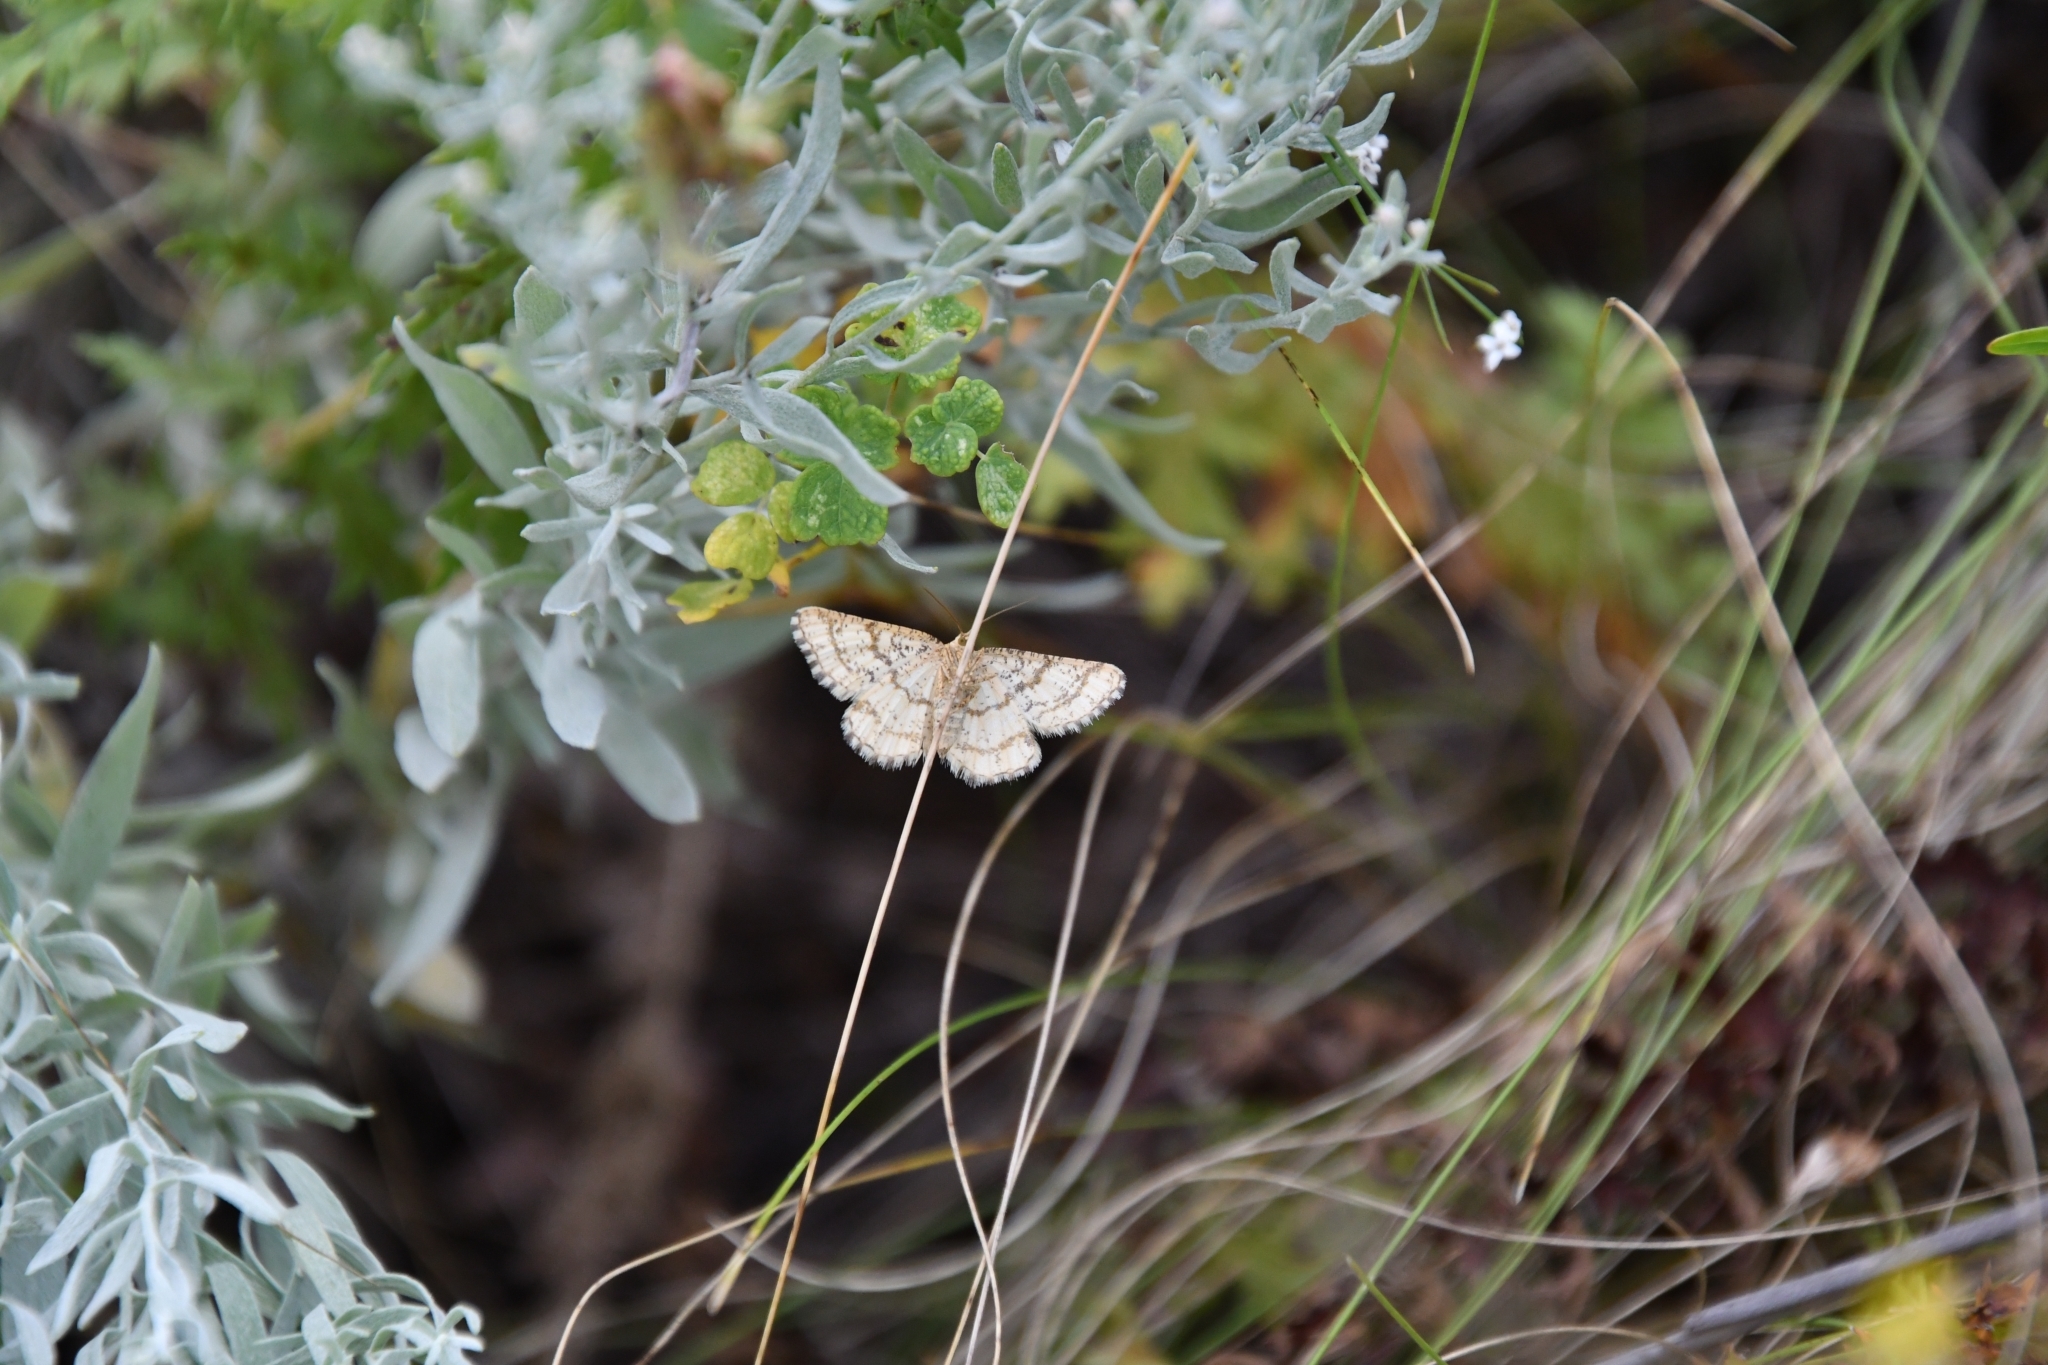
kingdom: Animalia
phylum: Arthropoda
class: Insecta
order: Lepidoptera
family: Geometridae
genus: Heliomata
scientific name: Heliomata glarearia
